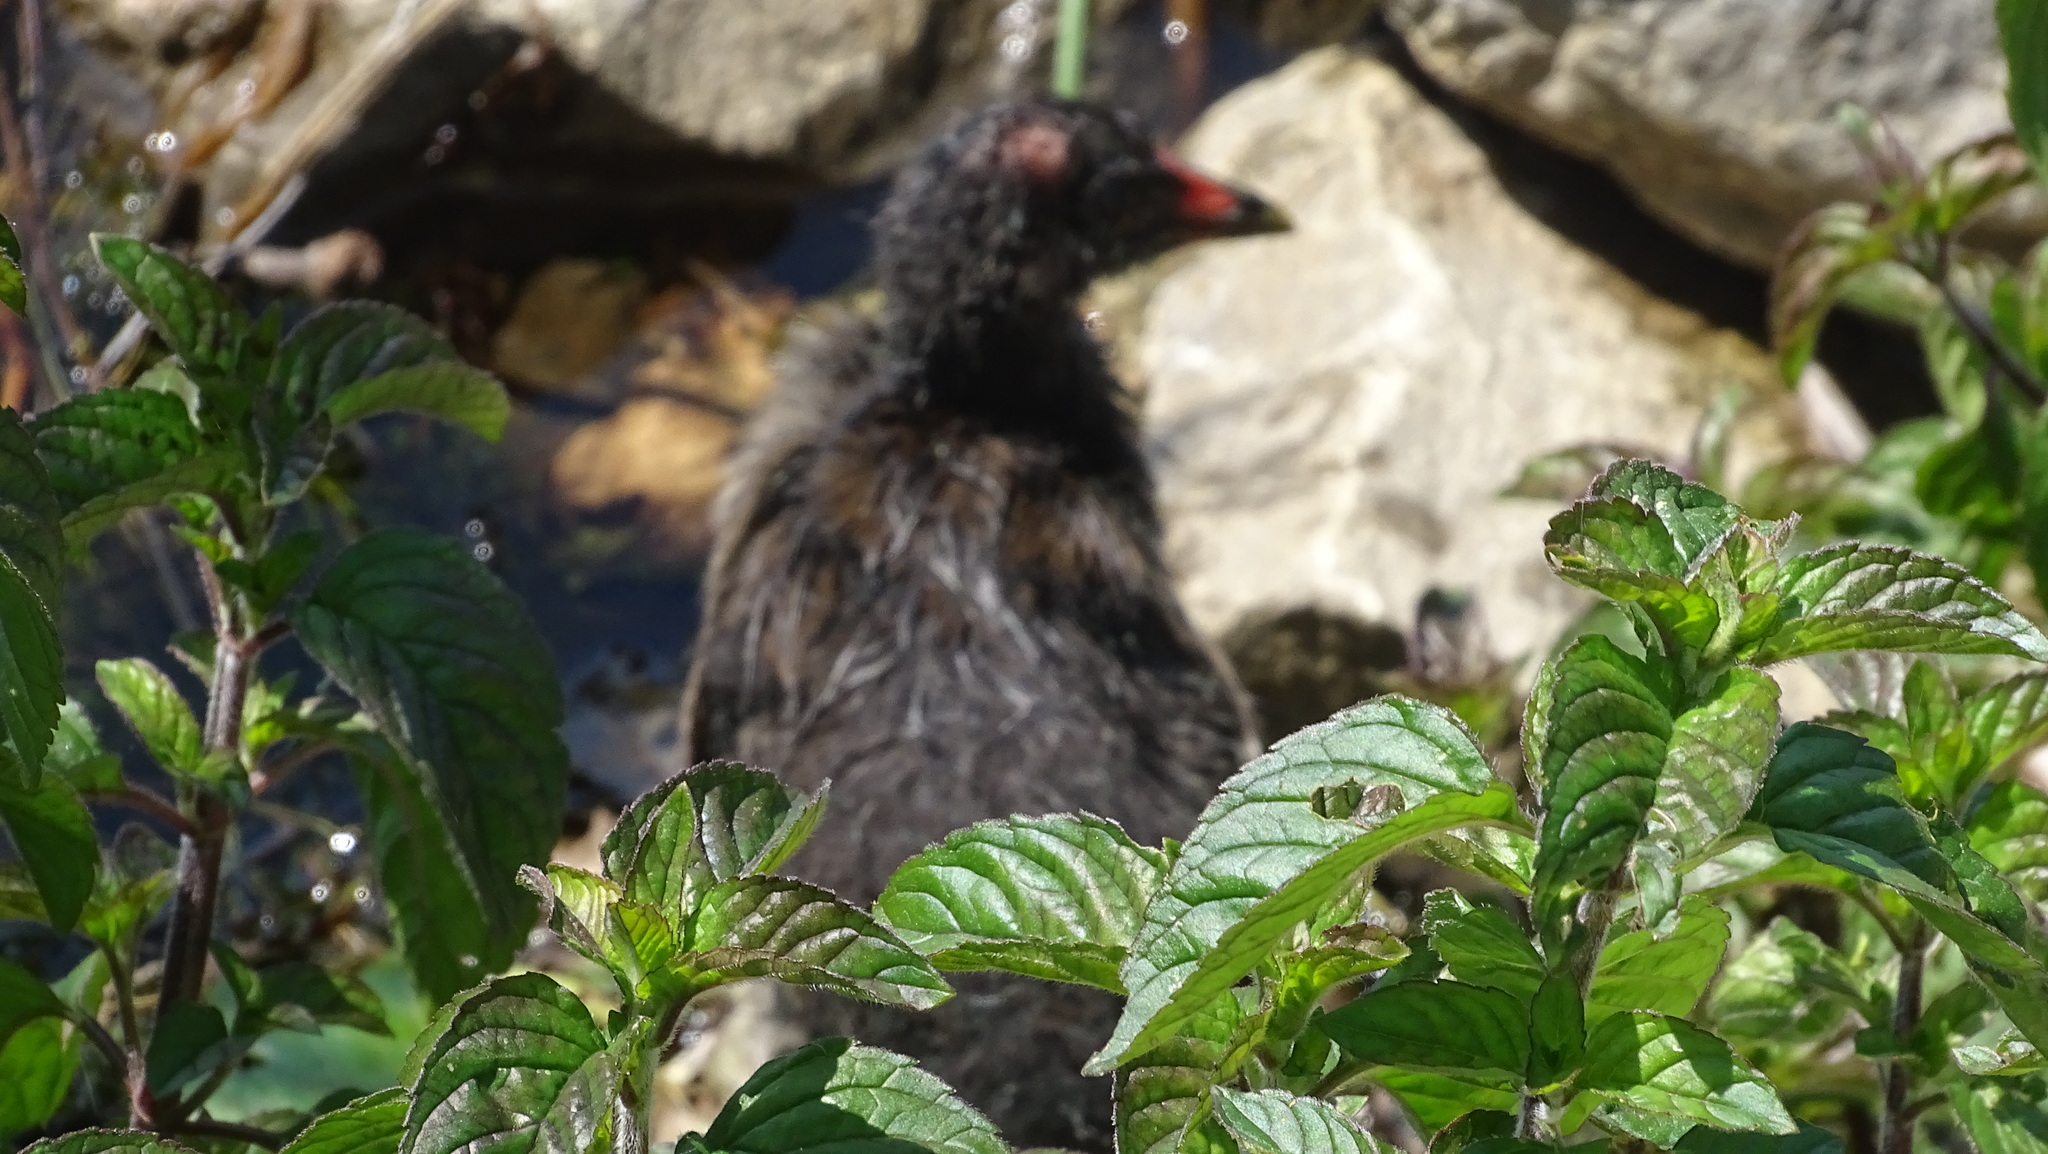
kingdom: Animalia
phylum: Chordata
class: Aves
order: Gruiformes
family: Rallidae
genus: Gallinula
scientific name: Gallinula chloropus
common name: Common moorhen
